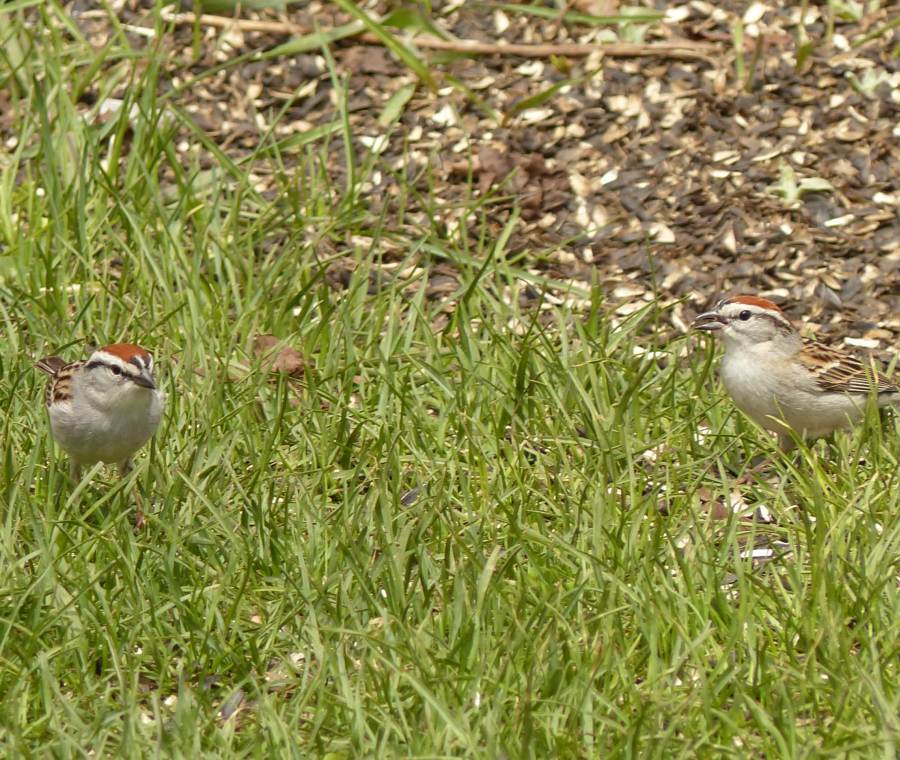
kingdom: Animalia
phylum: Chordata
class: Aves
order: Passeriformes
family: Passerellidae
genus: Spizella
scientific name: Spizella passerina
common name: Chipping sparrow
